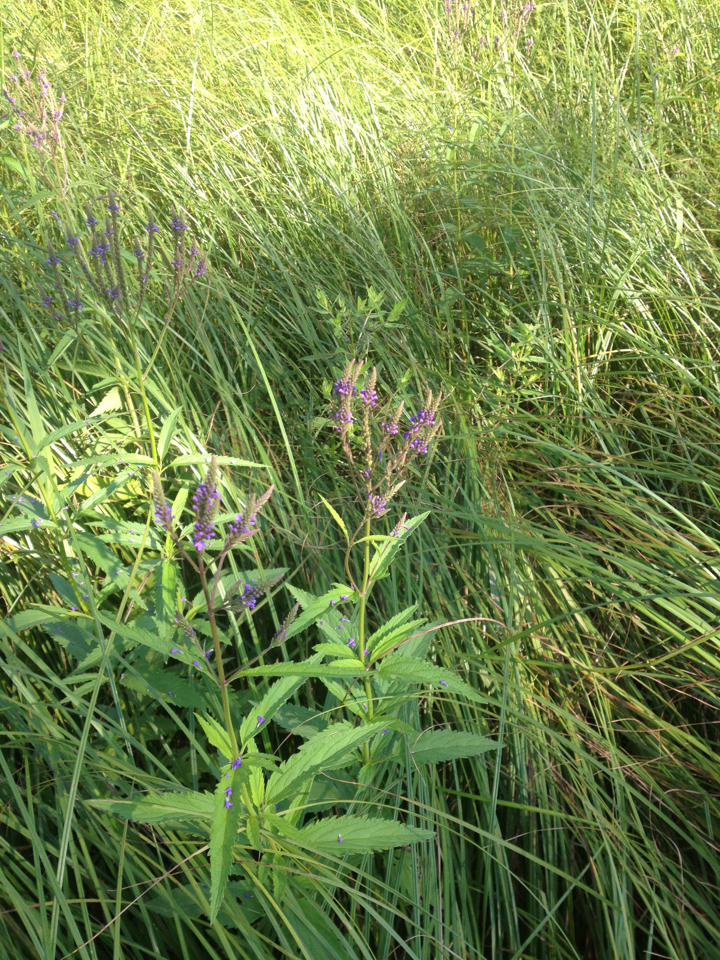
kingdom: Plantae
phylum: Tracheophyta
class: Magnoliopsida
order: Lamiales
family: Verbenaceae
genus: Verbena
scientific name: Verbena hastata
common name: American blue vervain
